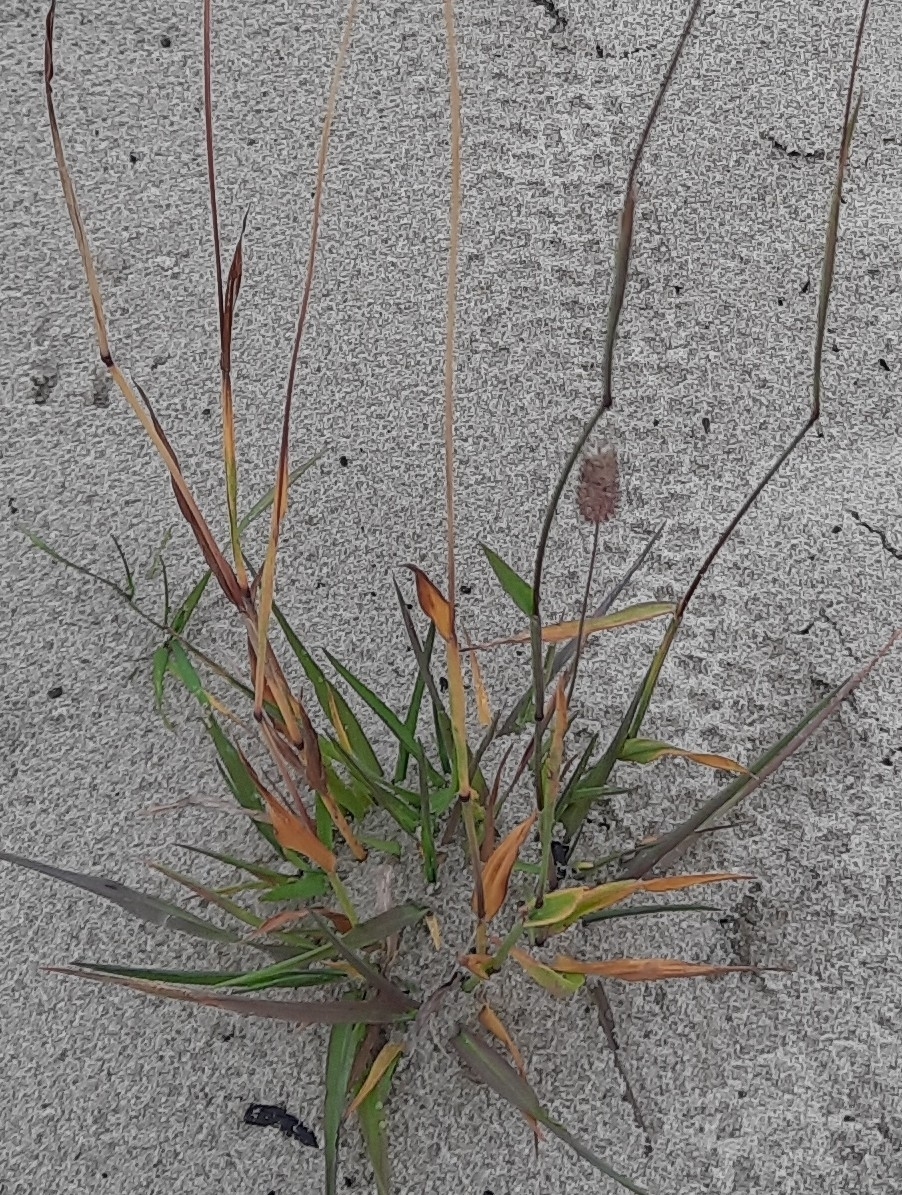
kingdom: Plantae
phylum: Tracheophyta
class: Liliopsida
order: Poales
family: Poaceae
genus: Phleum
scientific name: Phleum pratense
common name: Timothy grass
